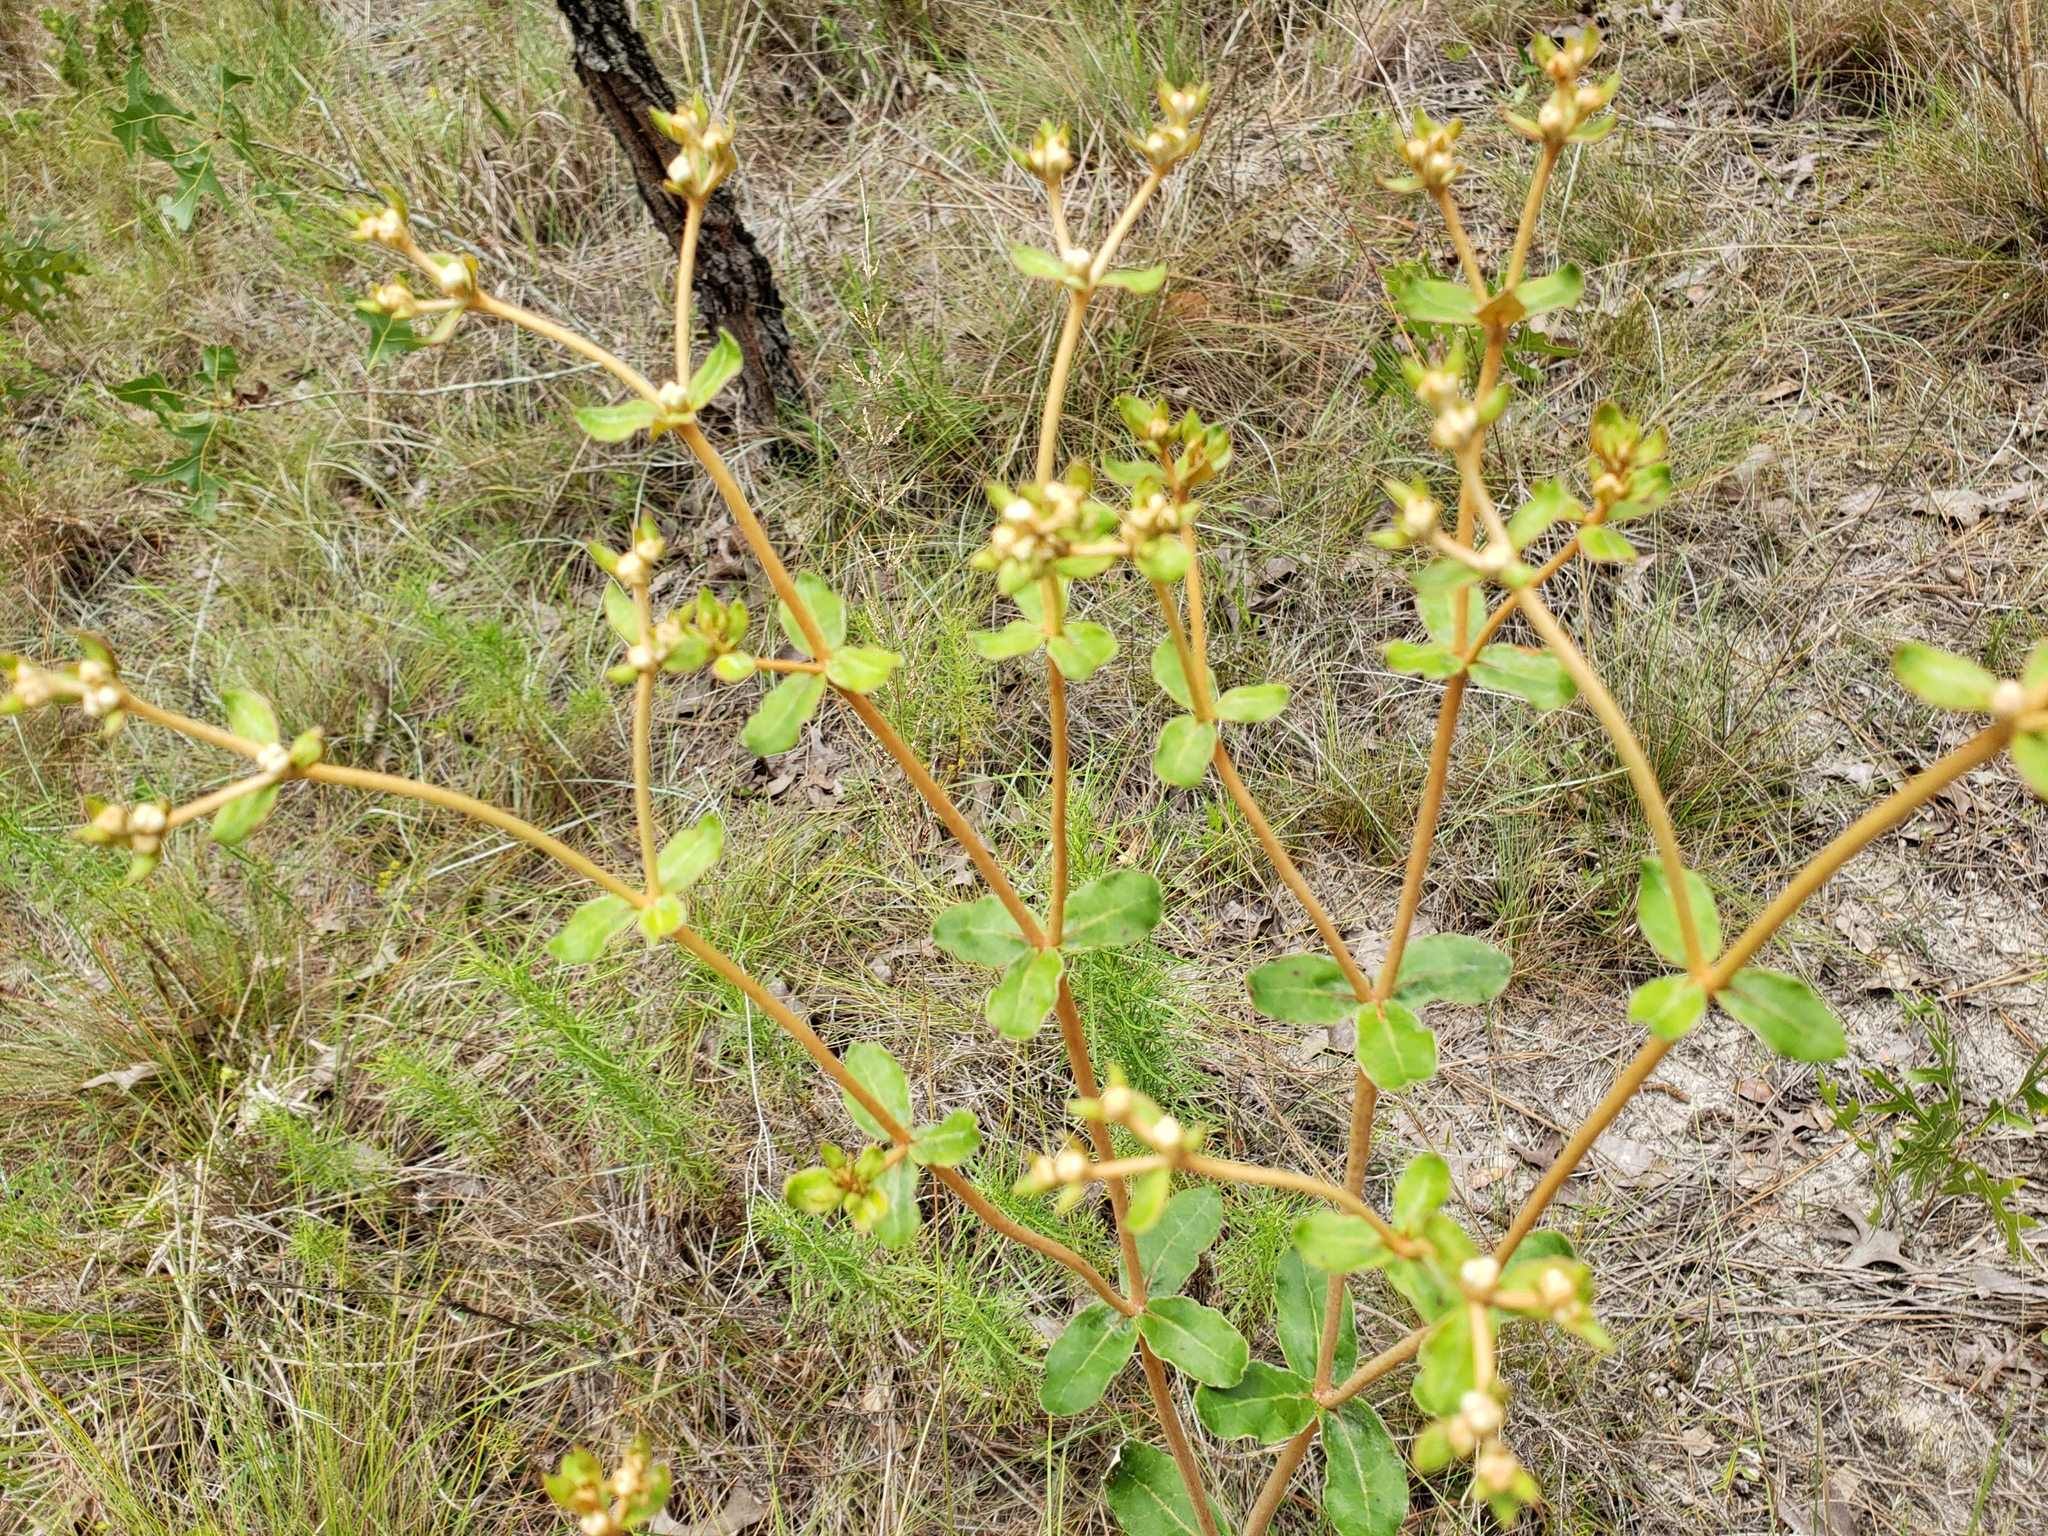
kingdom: Plantae
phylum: Tracheophyta
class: Magnoliopsida
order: Caryophyllales
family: Polygonaceae
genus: Eriogonum
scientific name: Eriogonum tomentosum
